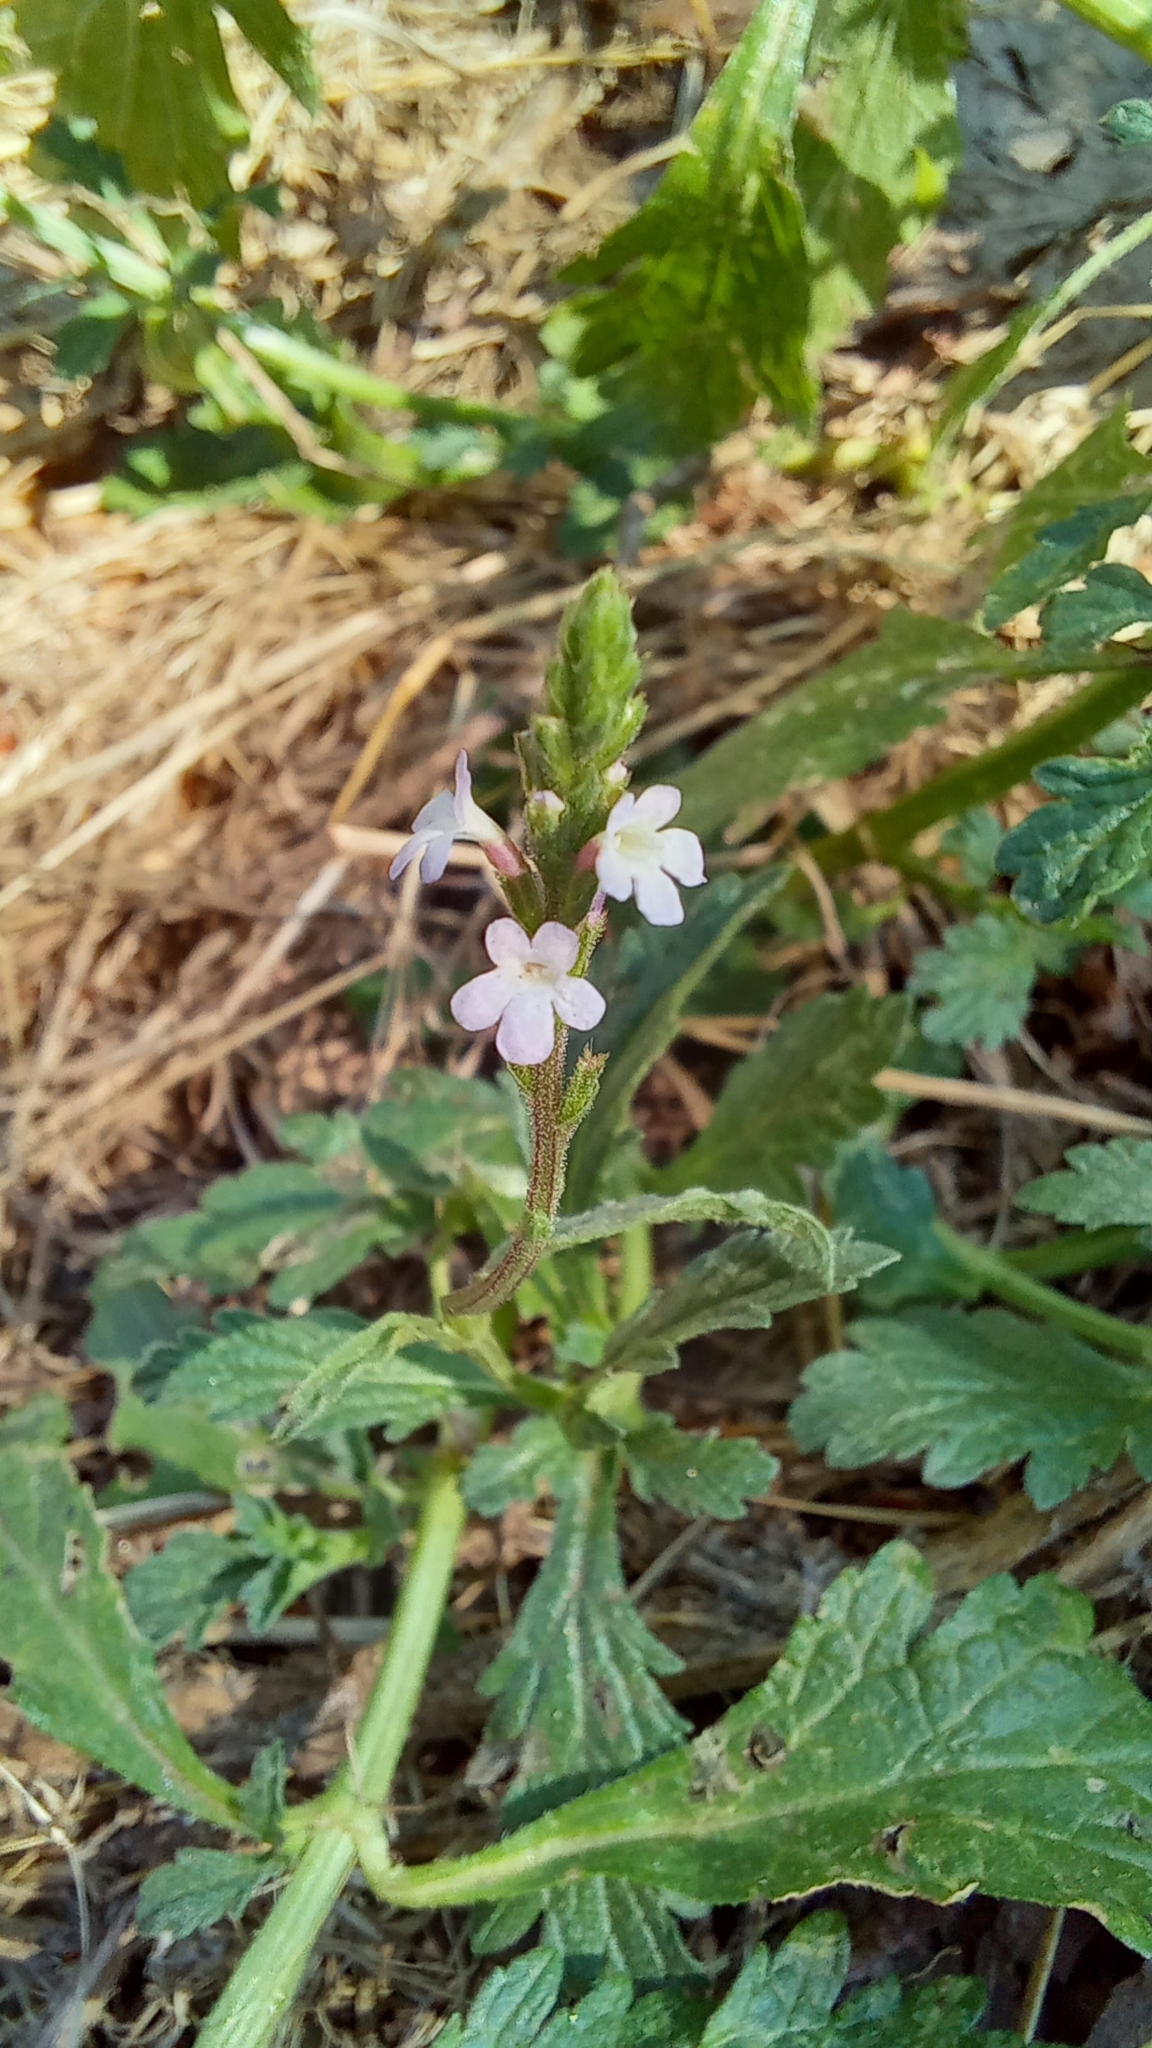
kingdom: Plantae
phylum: Tracheophyta
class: Magnoliopsida
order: Lamiales
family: Verbenaceae
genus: Verbena
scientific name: Verbena officinalis
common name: Vervain
